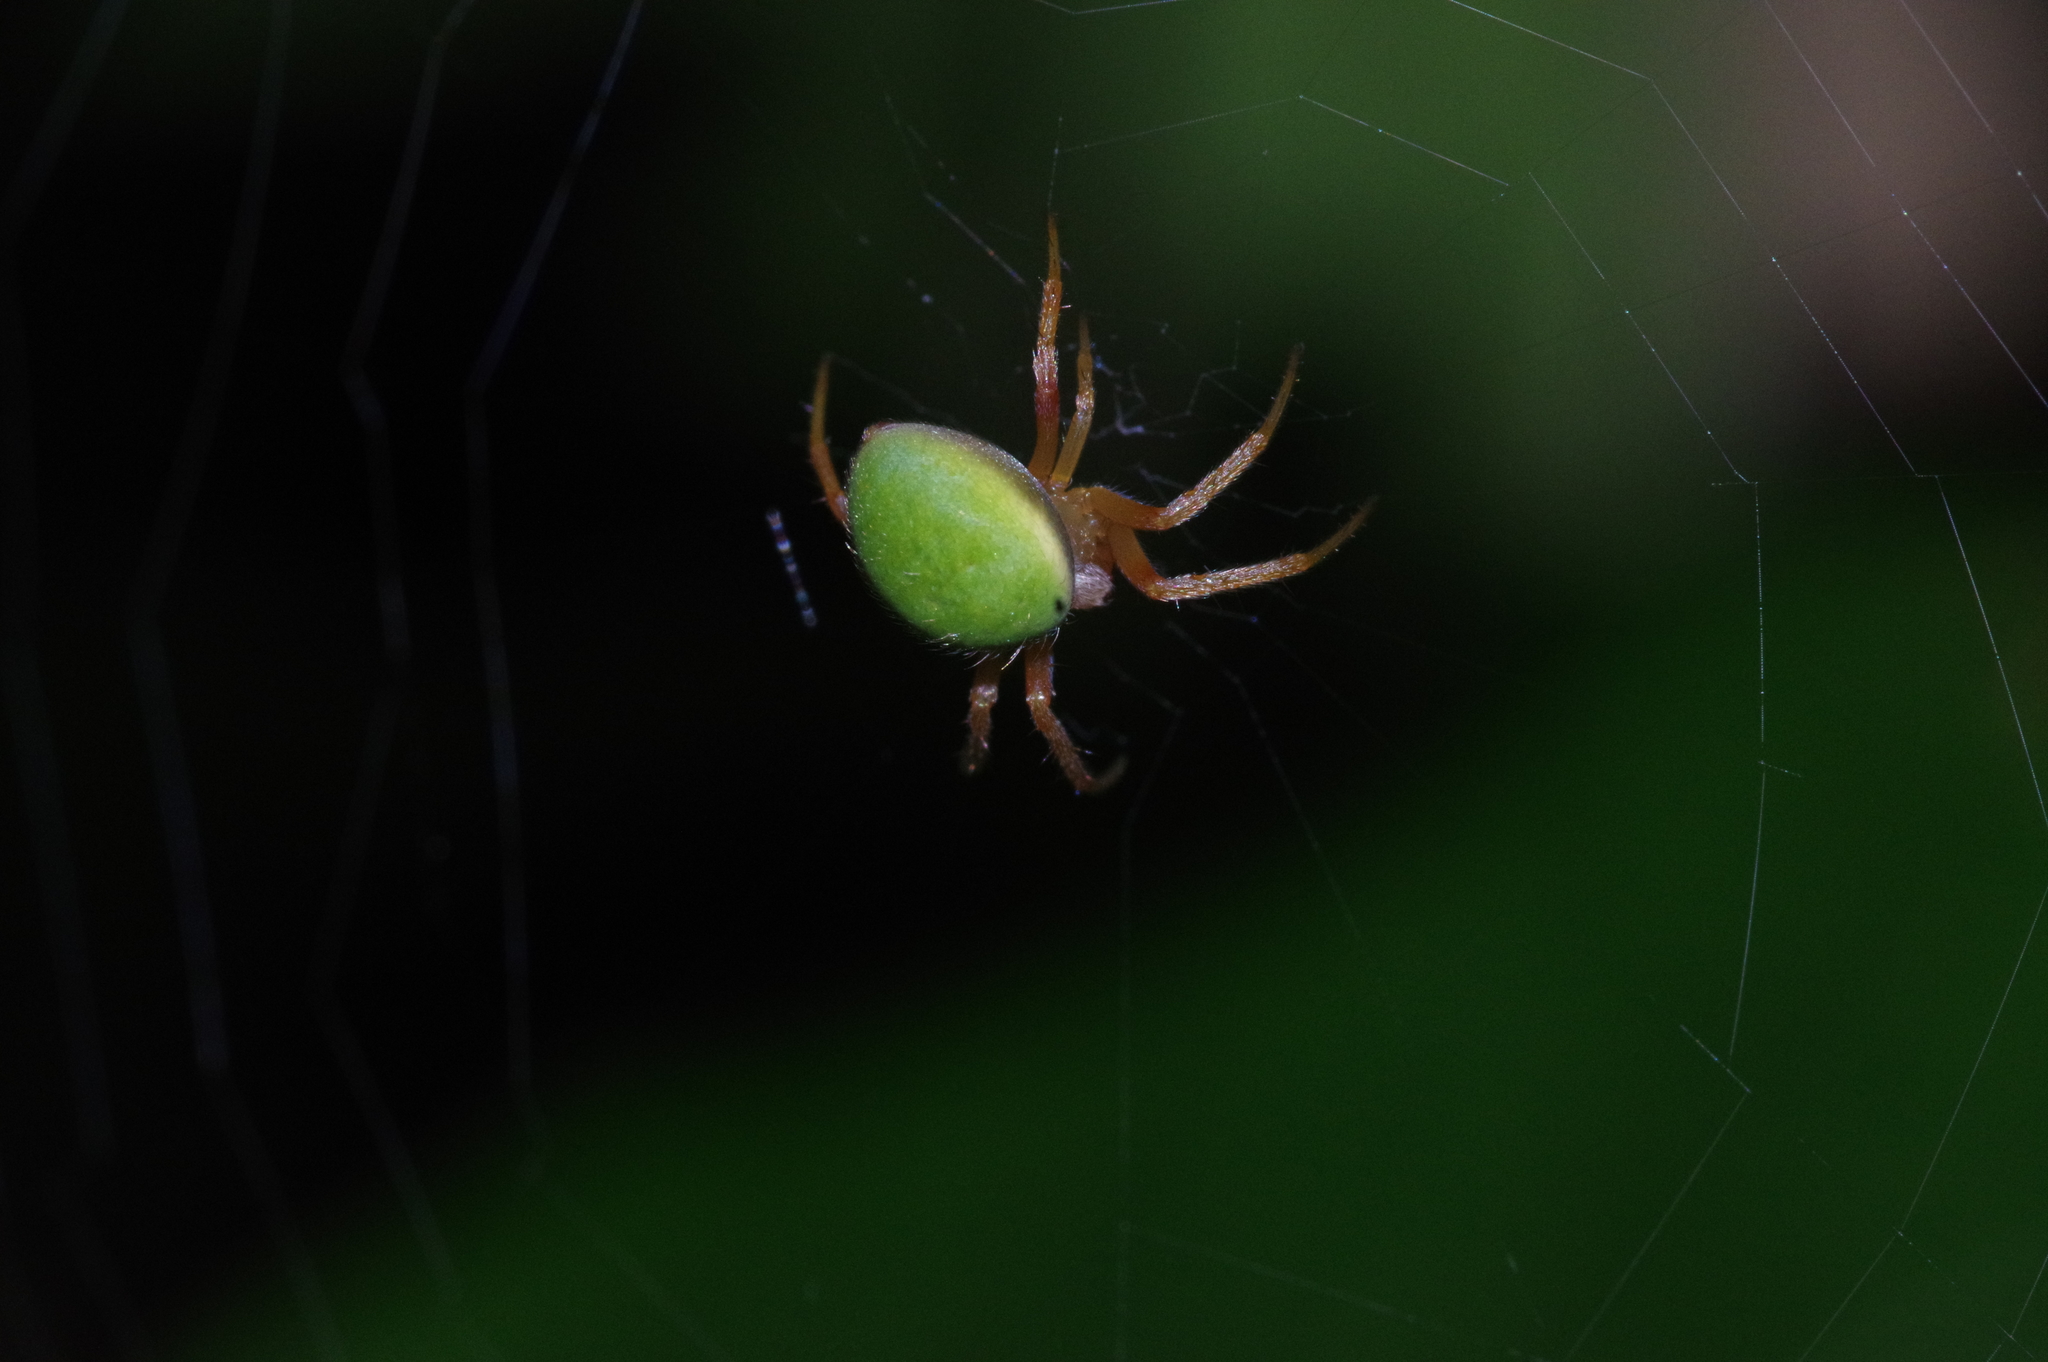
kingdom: Animalia
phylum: Arthropoda
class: Arachnida
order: Araneae
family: Araneidae
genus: Neoscona
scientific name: Neoscona mellotteei
